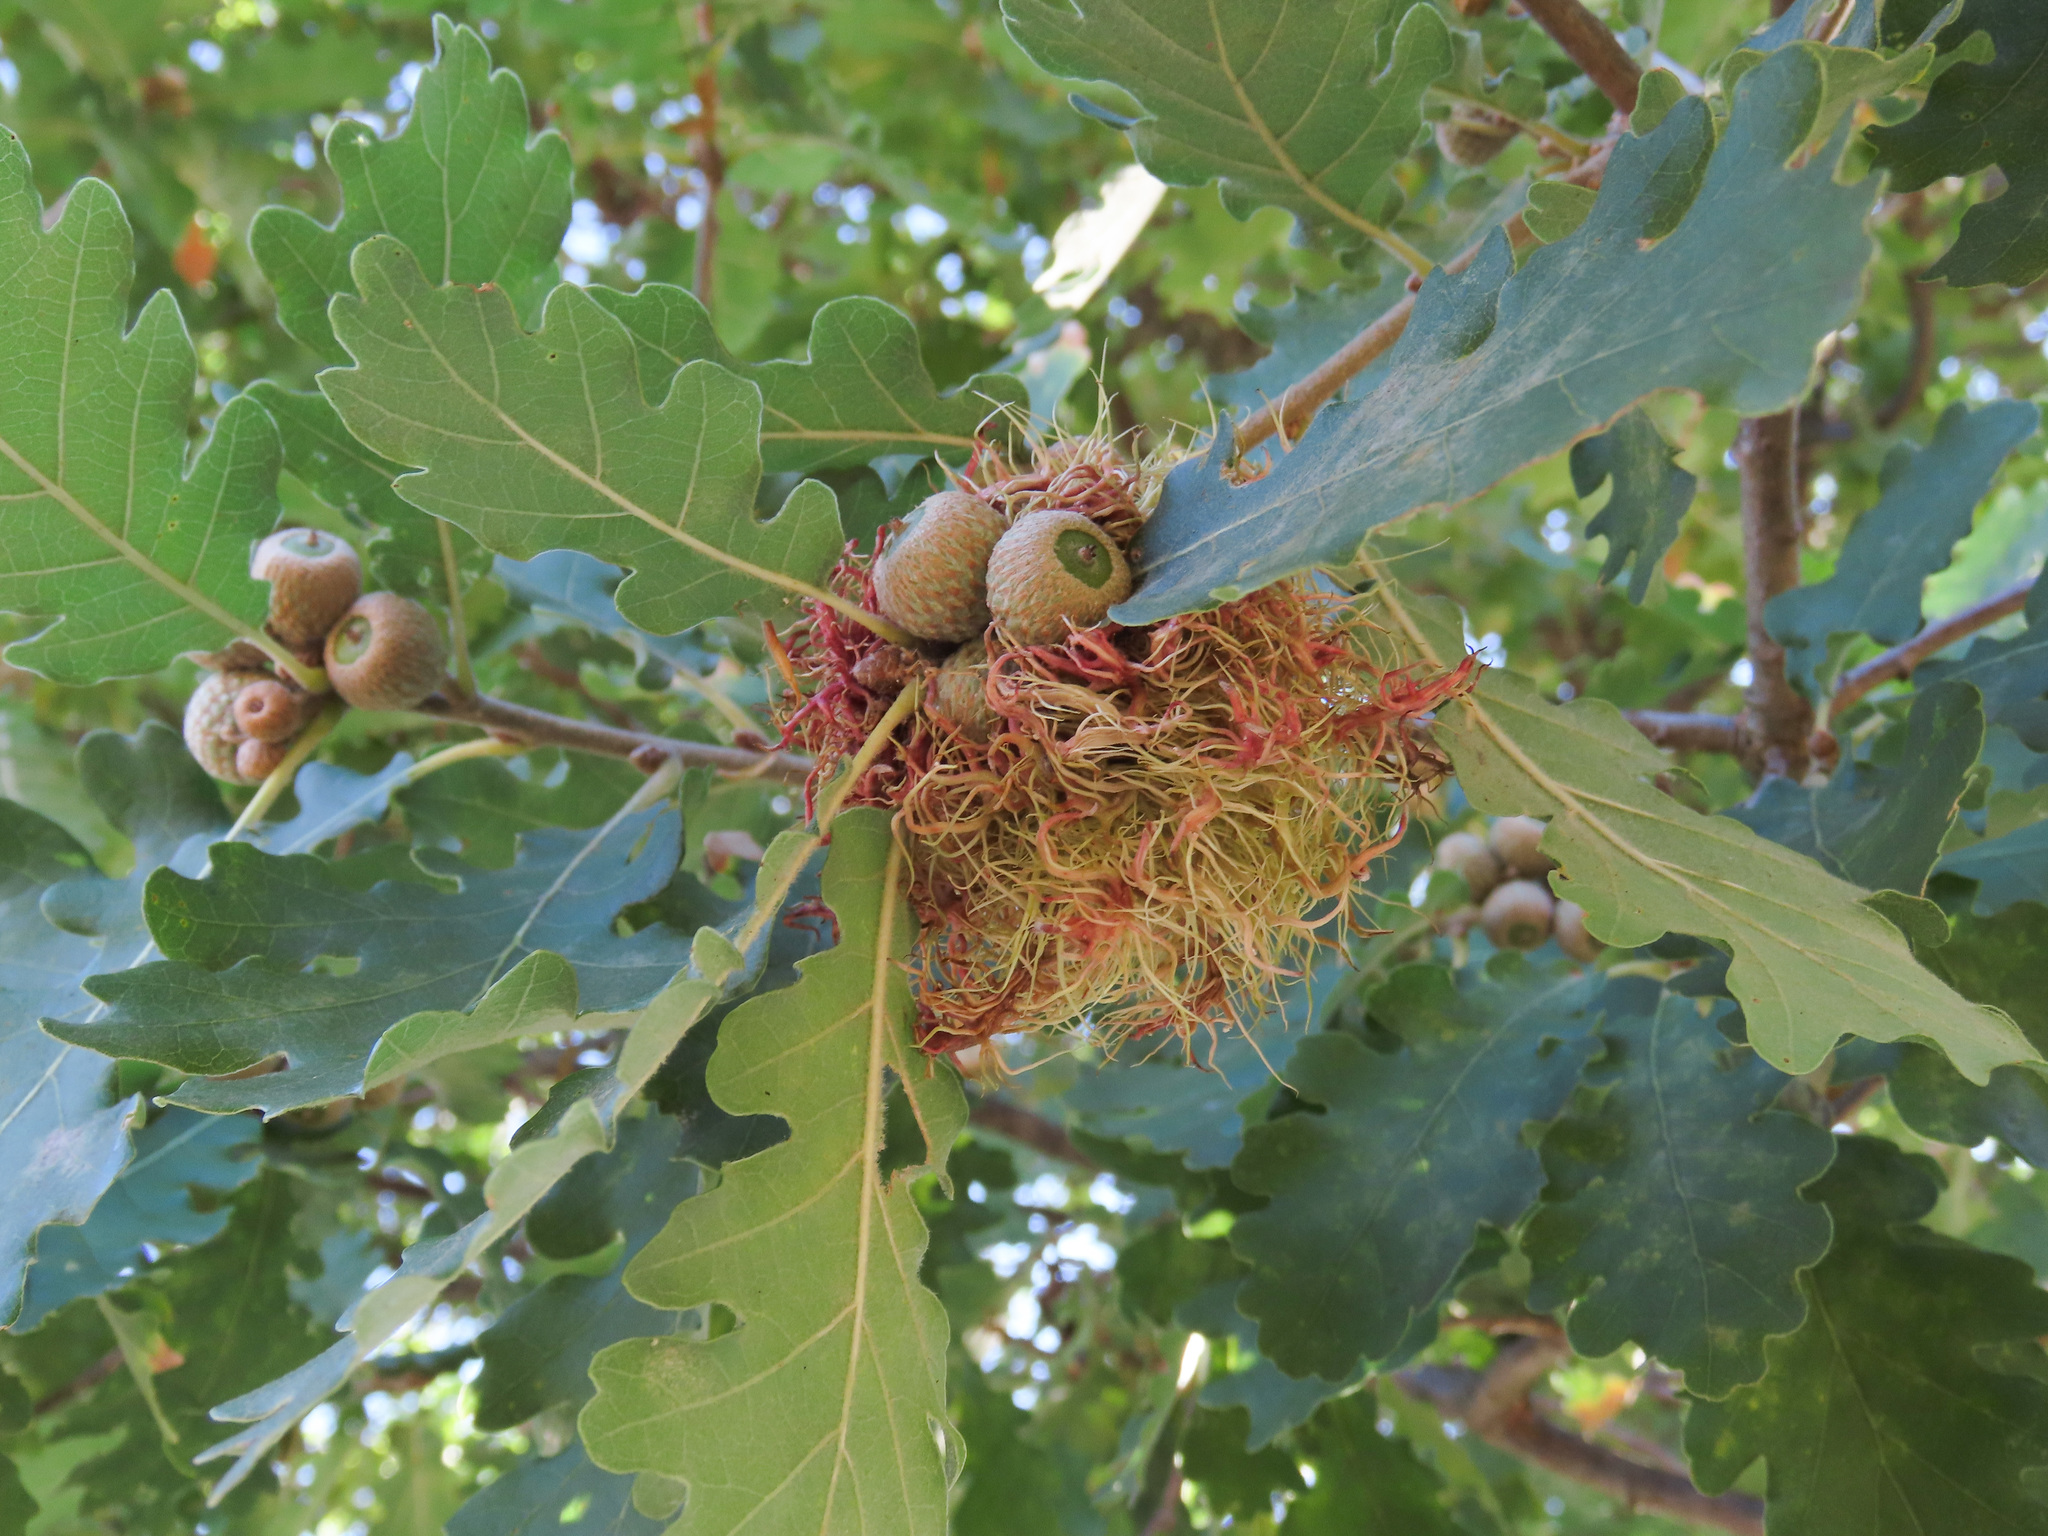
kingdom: Animalia
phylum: Arthropoda
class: Insecta
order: Hymenoptera
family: Cynipidae
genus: Andricus
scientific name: Andricus caputmedusae
